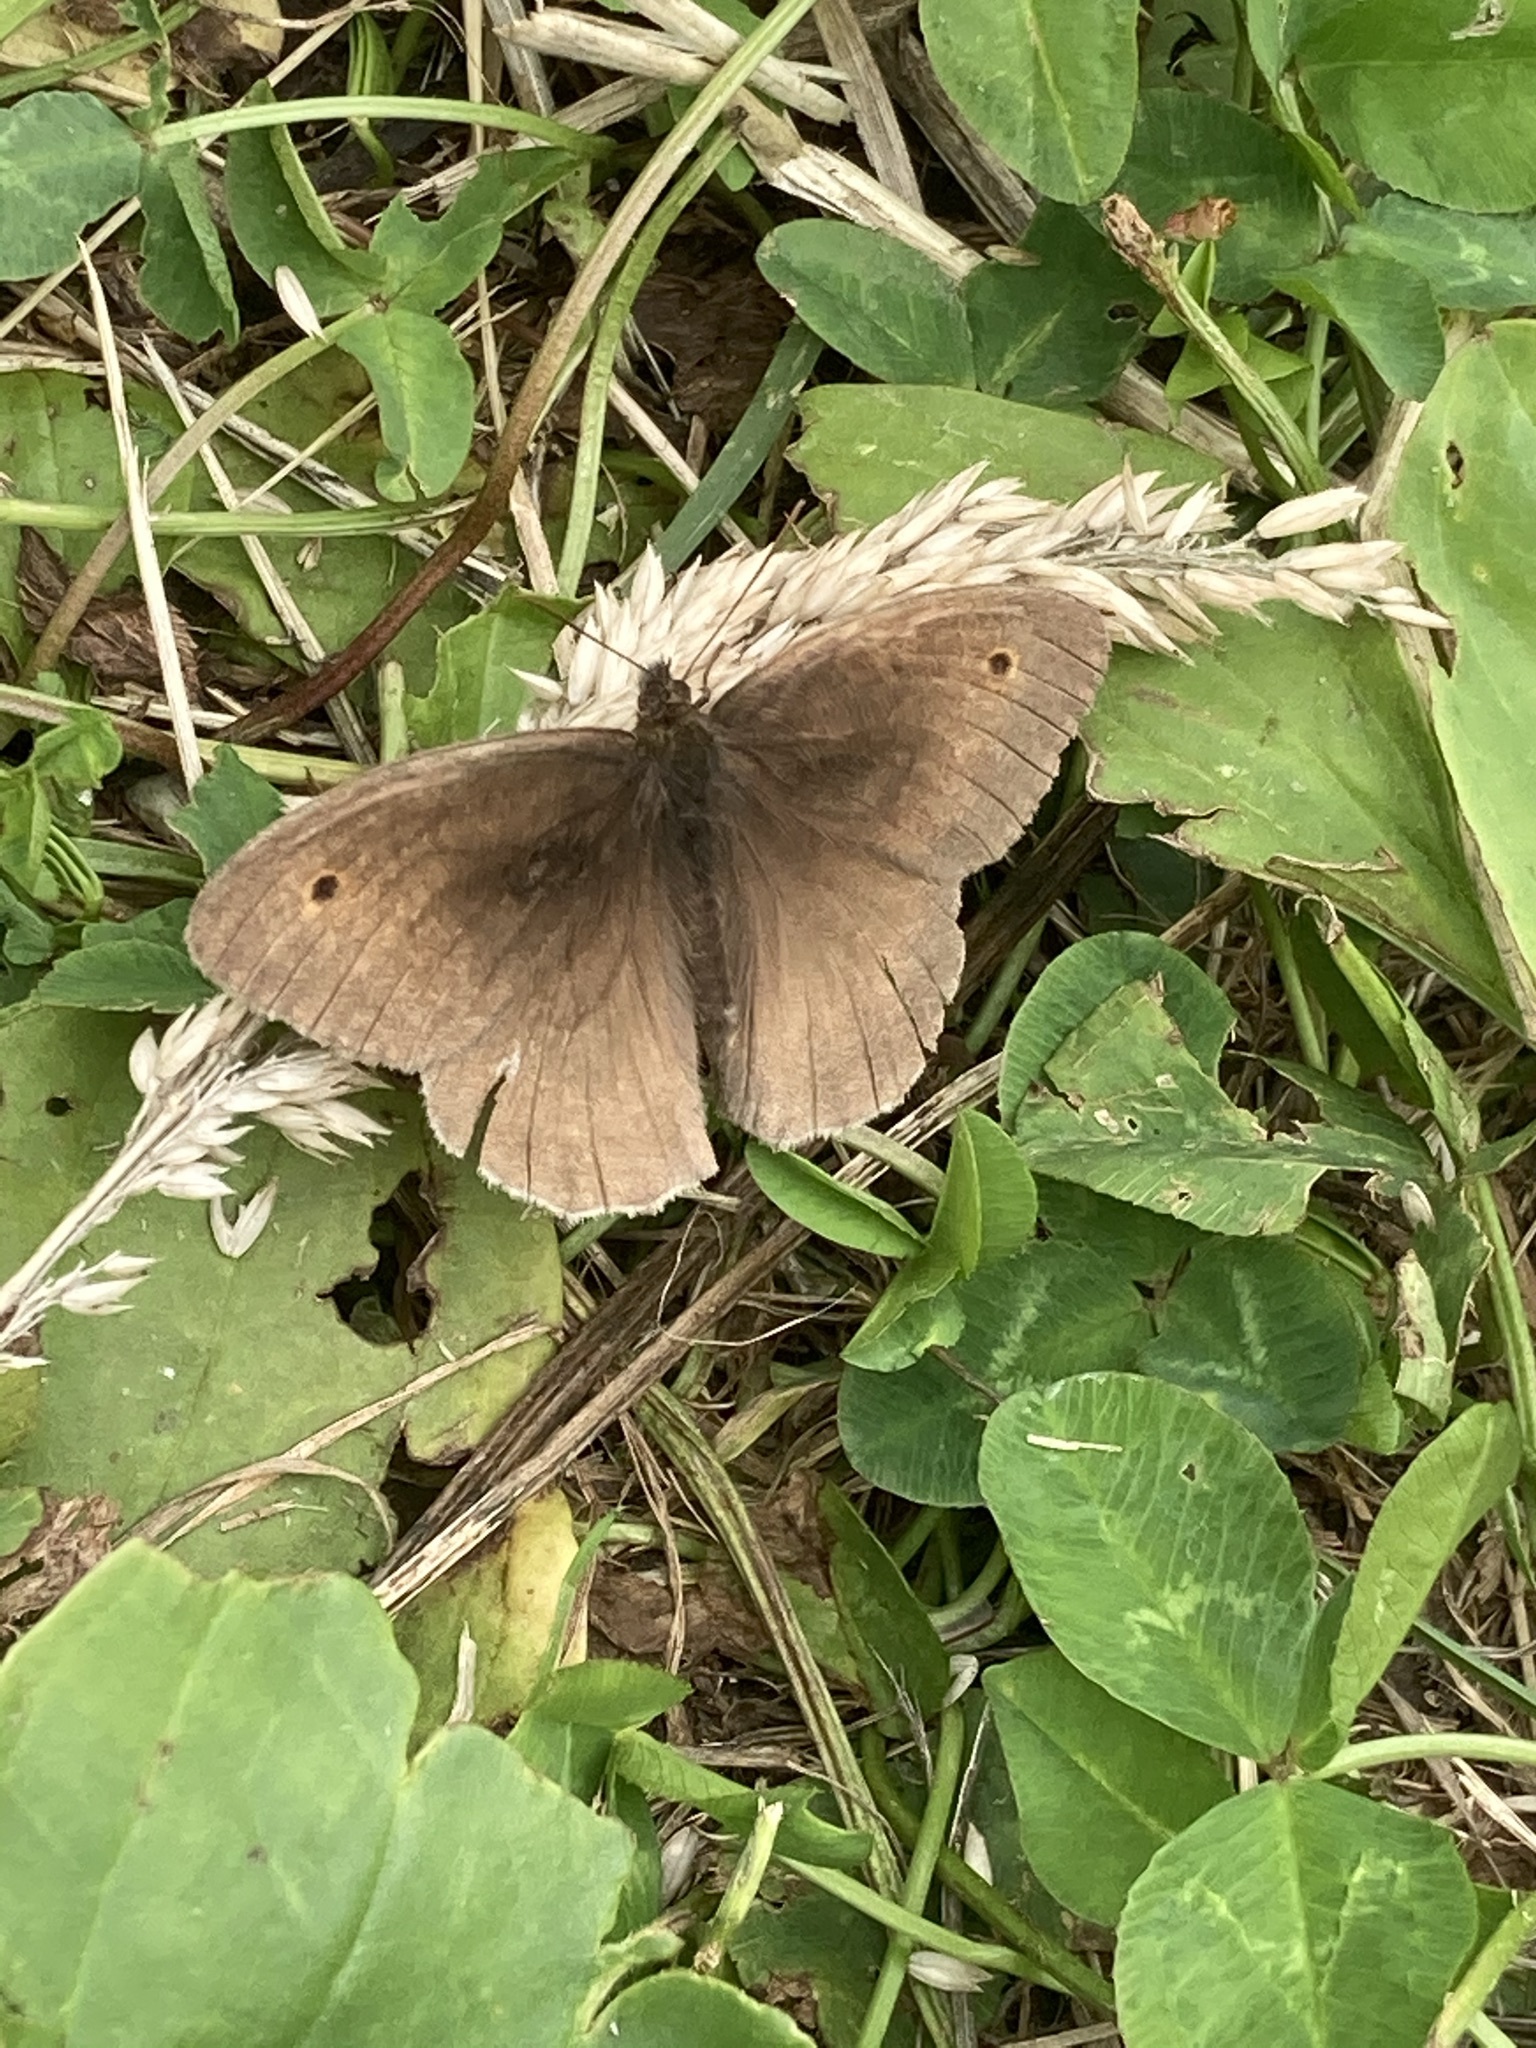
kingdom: Animalia
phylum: Arthropoda
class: Insecta
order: Lepidoptera
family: Nymphalidae
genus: Aphantopus
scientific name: Aphantopus hyperantus
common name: Ringlet
